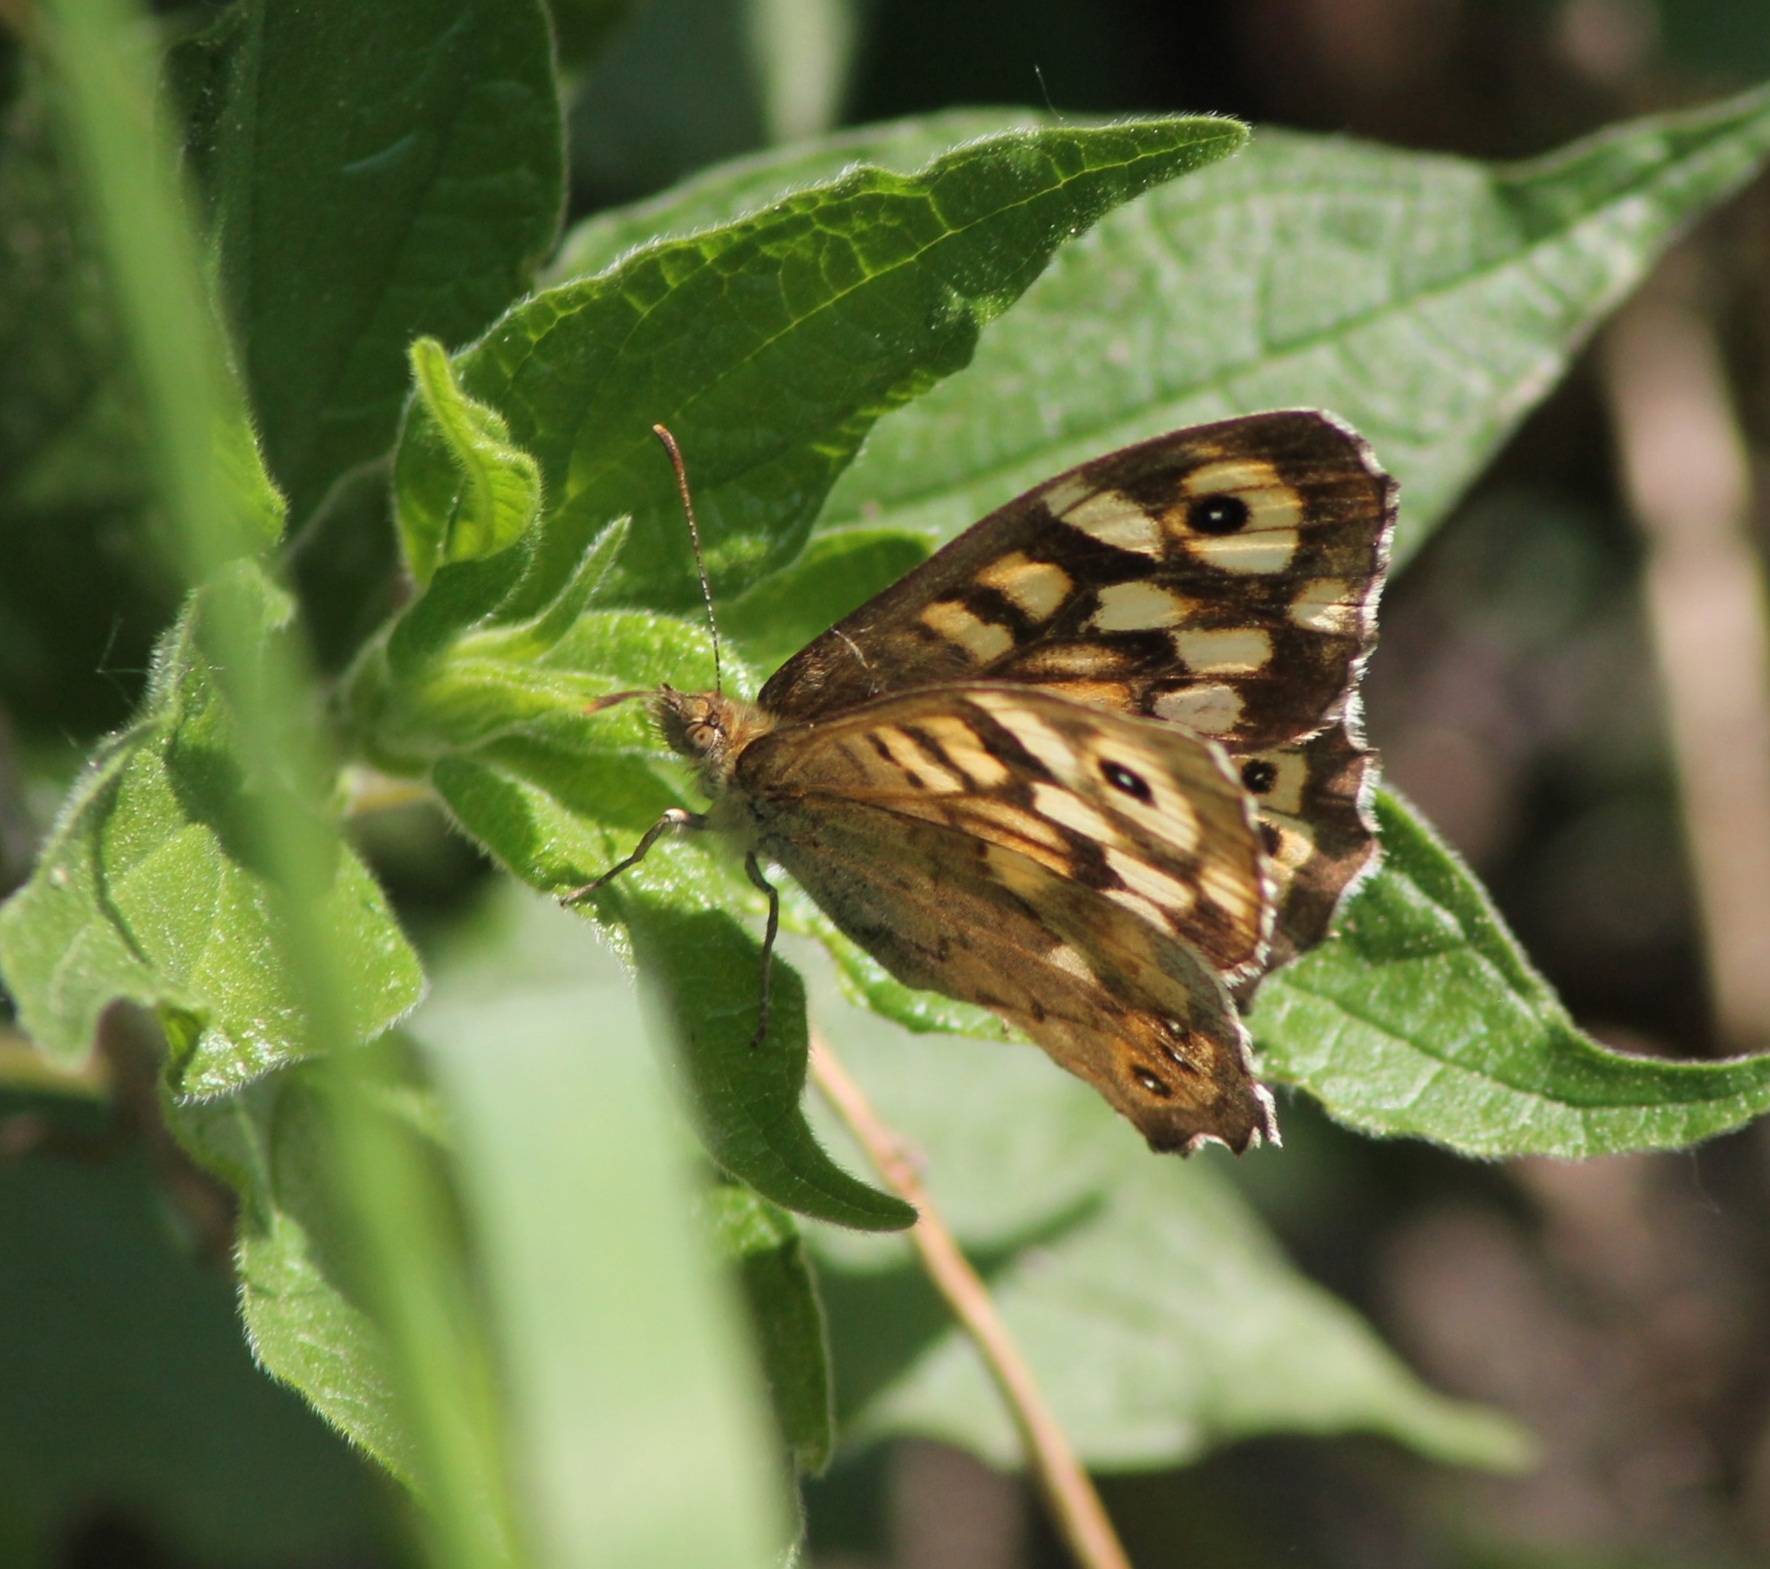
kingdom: Animalia
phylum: Arthropoda
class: Insecta
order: Lepidoptera
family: Nymphalidae
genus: Pararge
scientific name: Pararge aegeria
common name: Speckled wood
